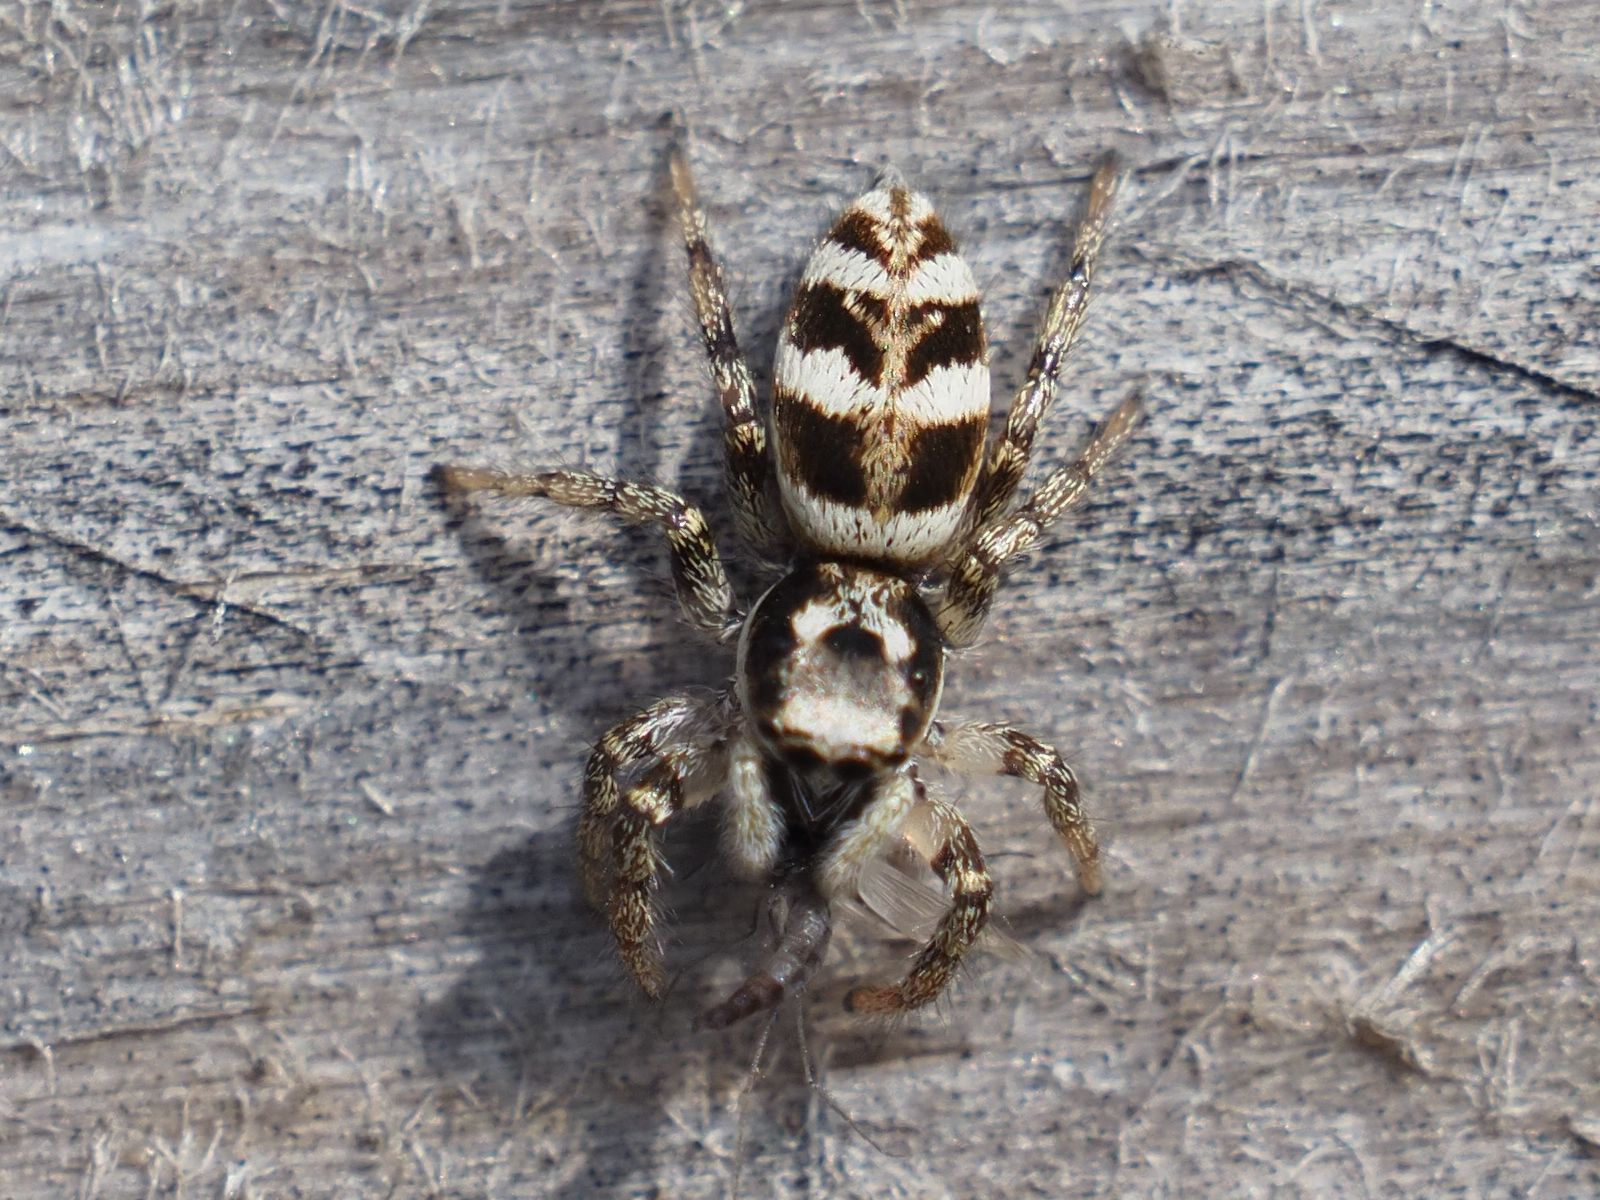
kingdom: Animalia
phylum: Arthropoda
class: Arachnida
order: Araneae
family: Salticidae
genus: Salticus
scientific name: Salticus scenicus
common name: Zebra jumper
